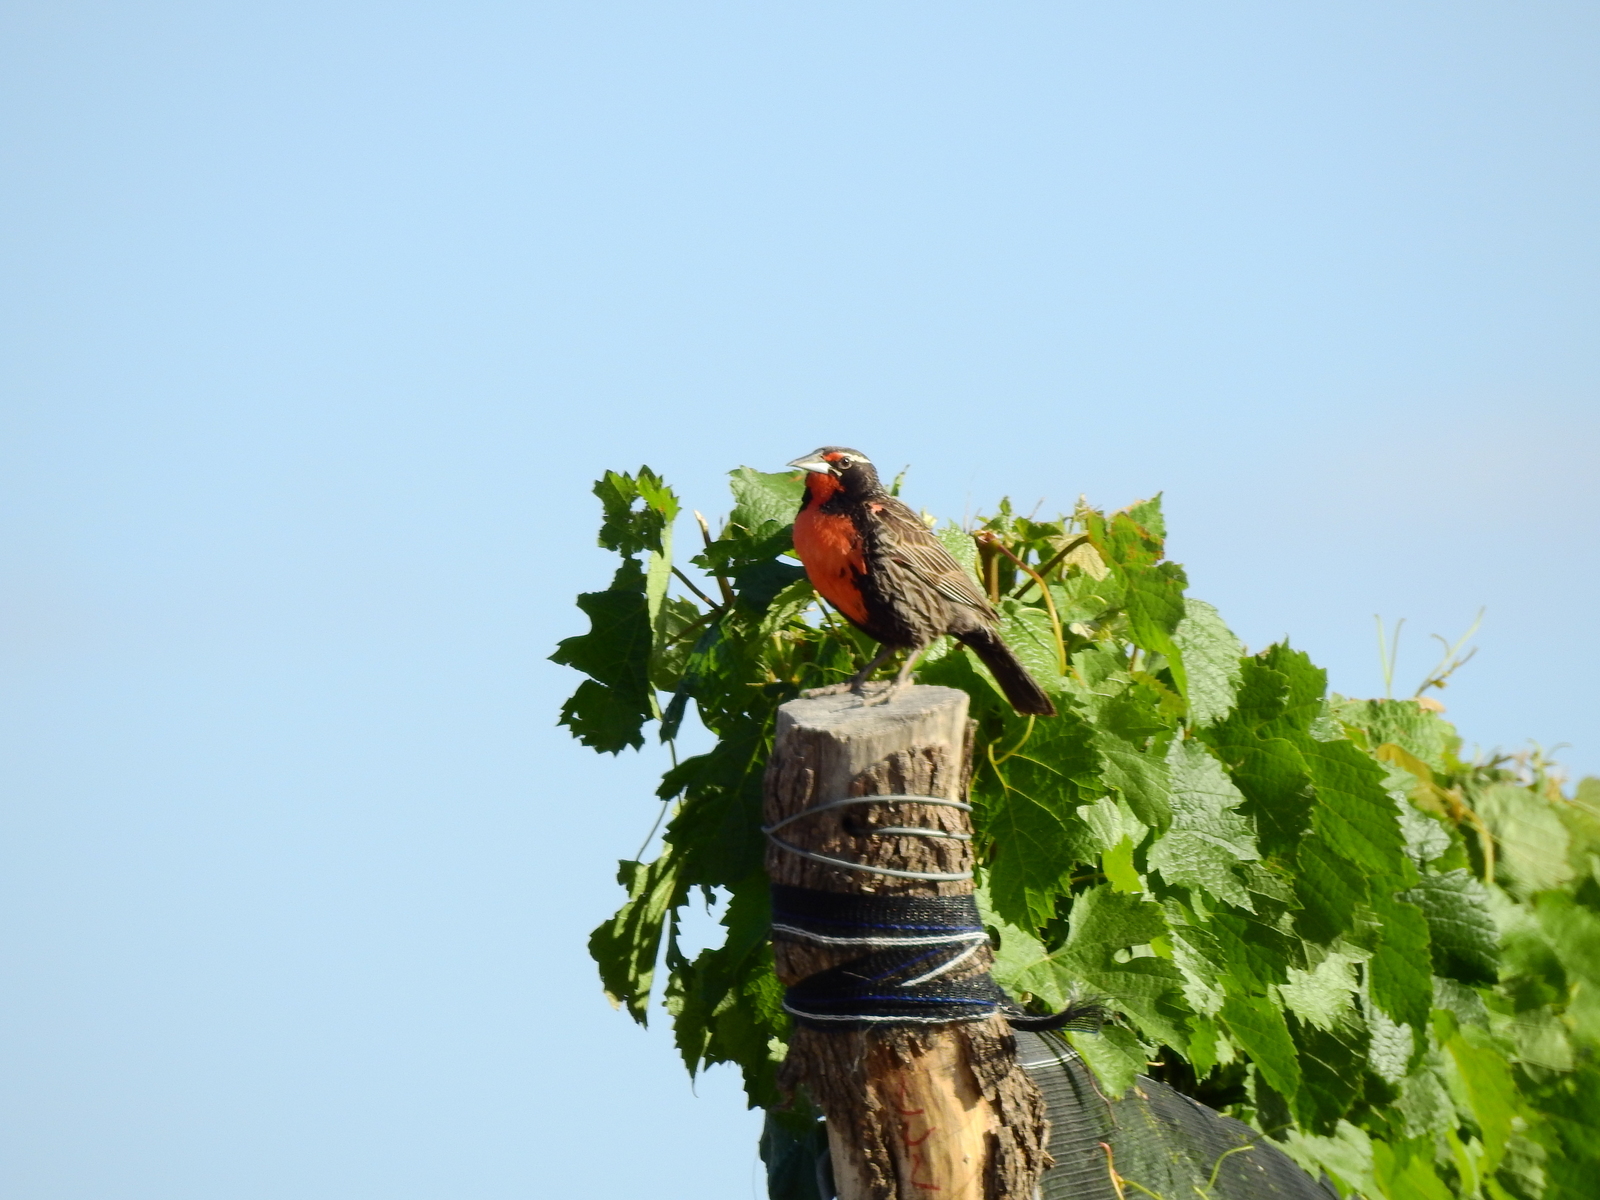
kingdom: Animalia
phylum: Chordata
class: Aves
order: Passeriformes
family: Icteridae
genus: Sturnella
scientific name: Sturnella loyca
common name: Long-tailed meadowlark
